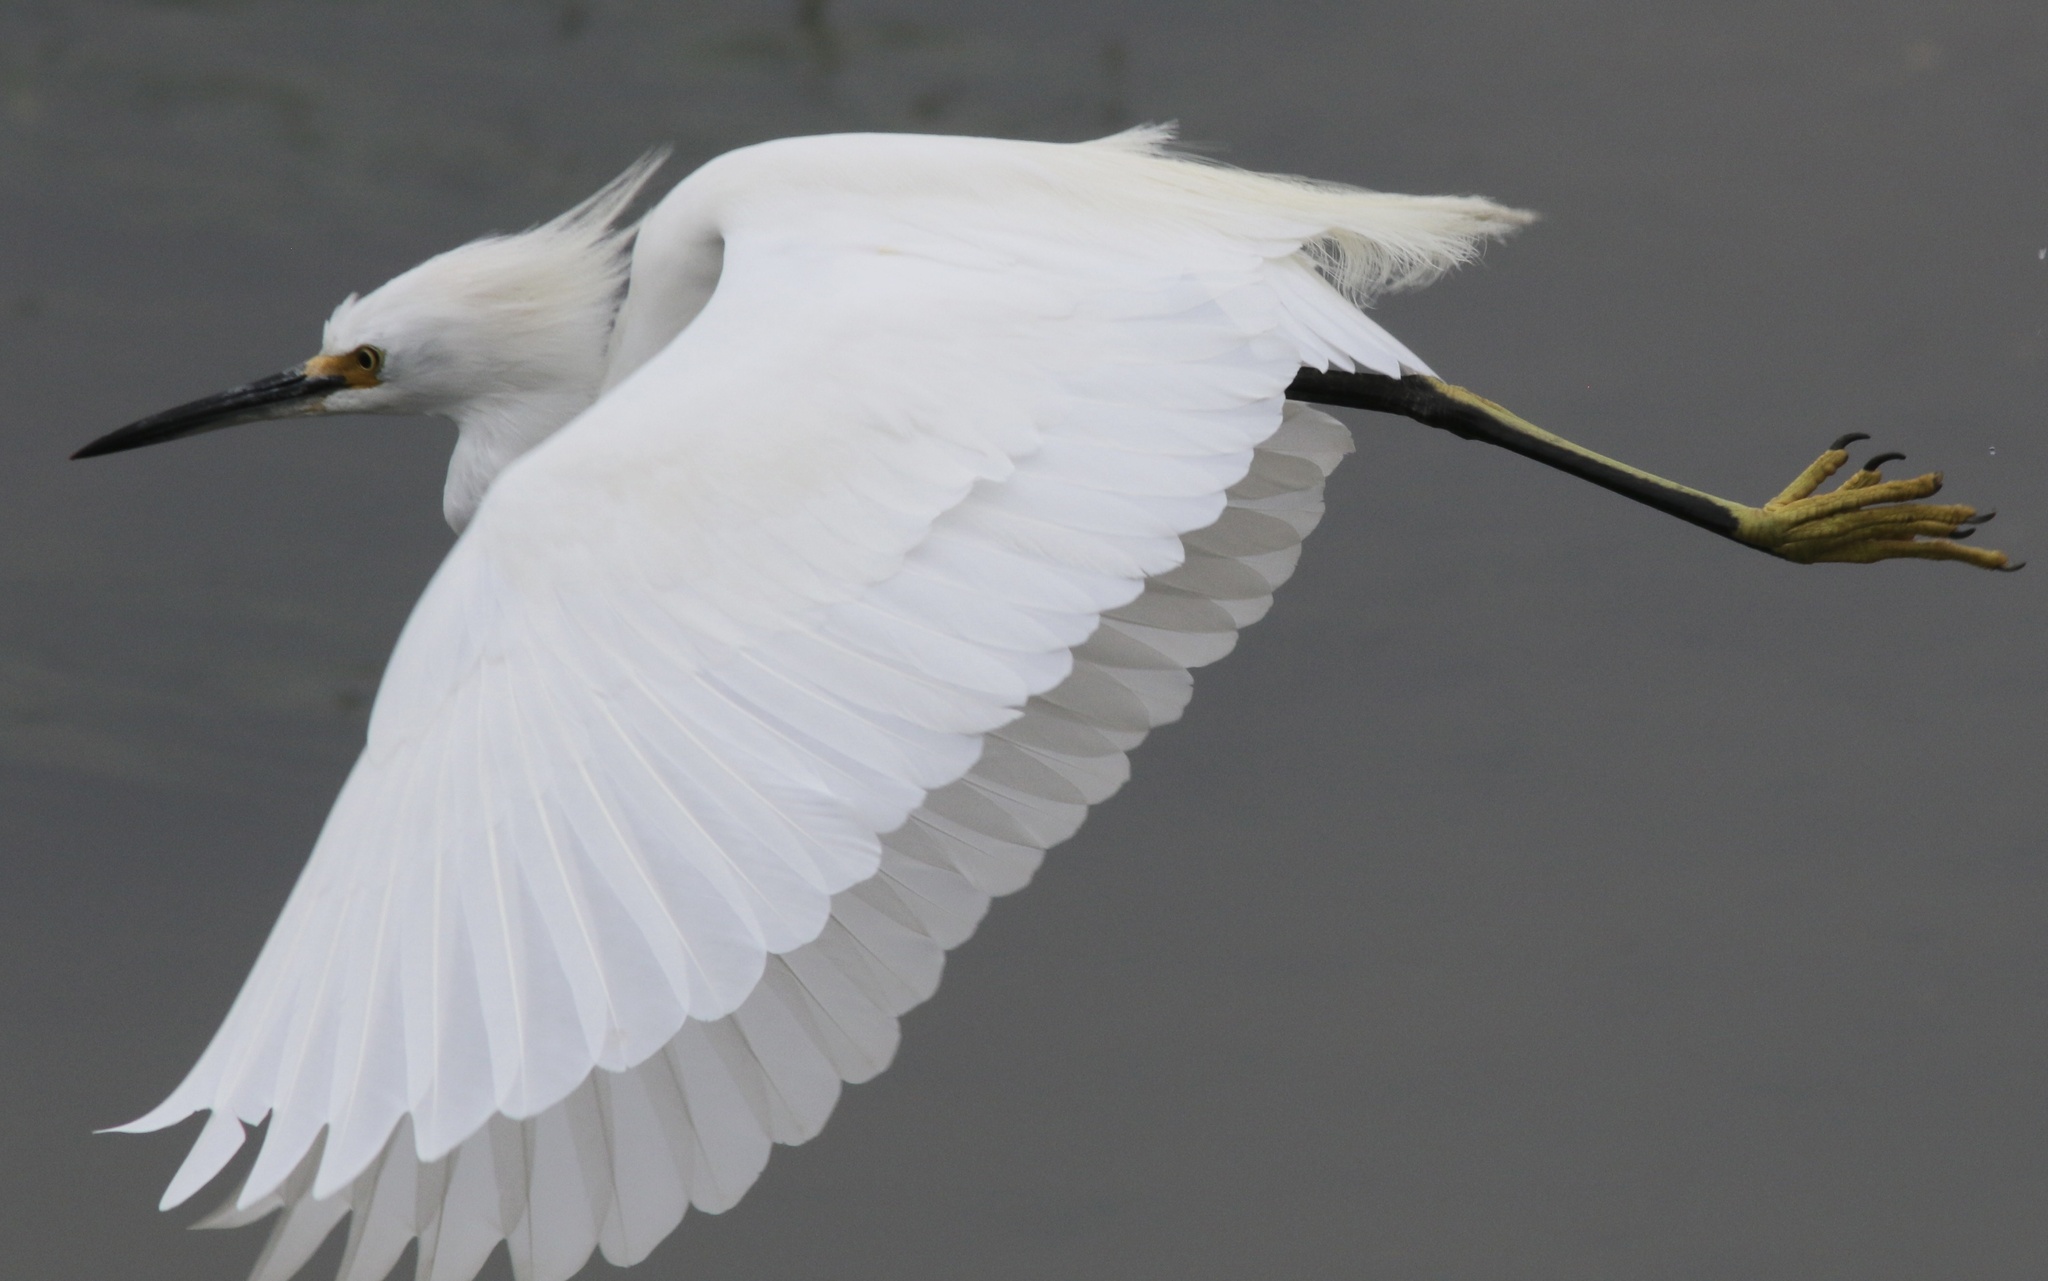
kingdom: Animalia
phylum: Chordata
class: Aves
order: Pelecaniformes
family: Ardeidae
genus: Egretta
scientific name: Egretta thula
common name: Snowy egret
